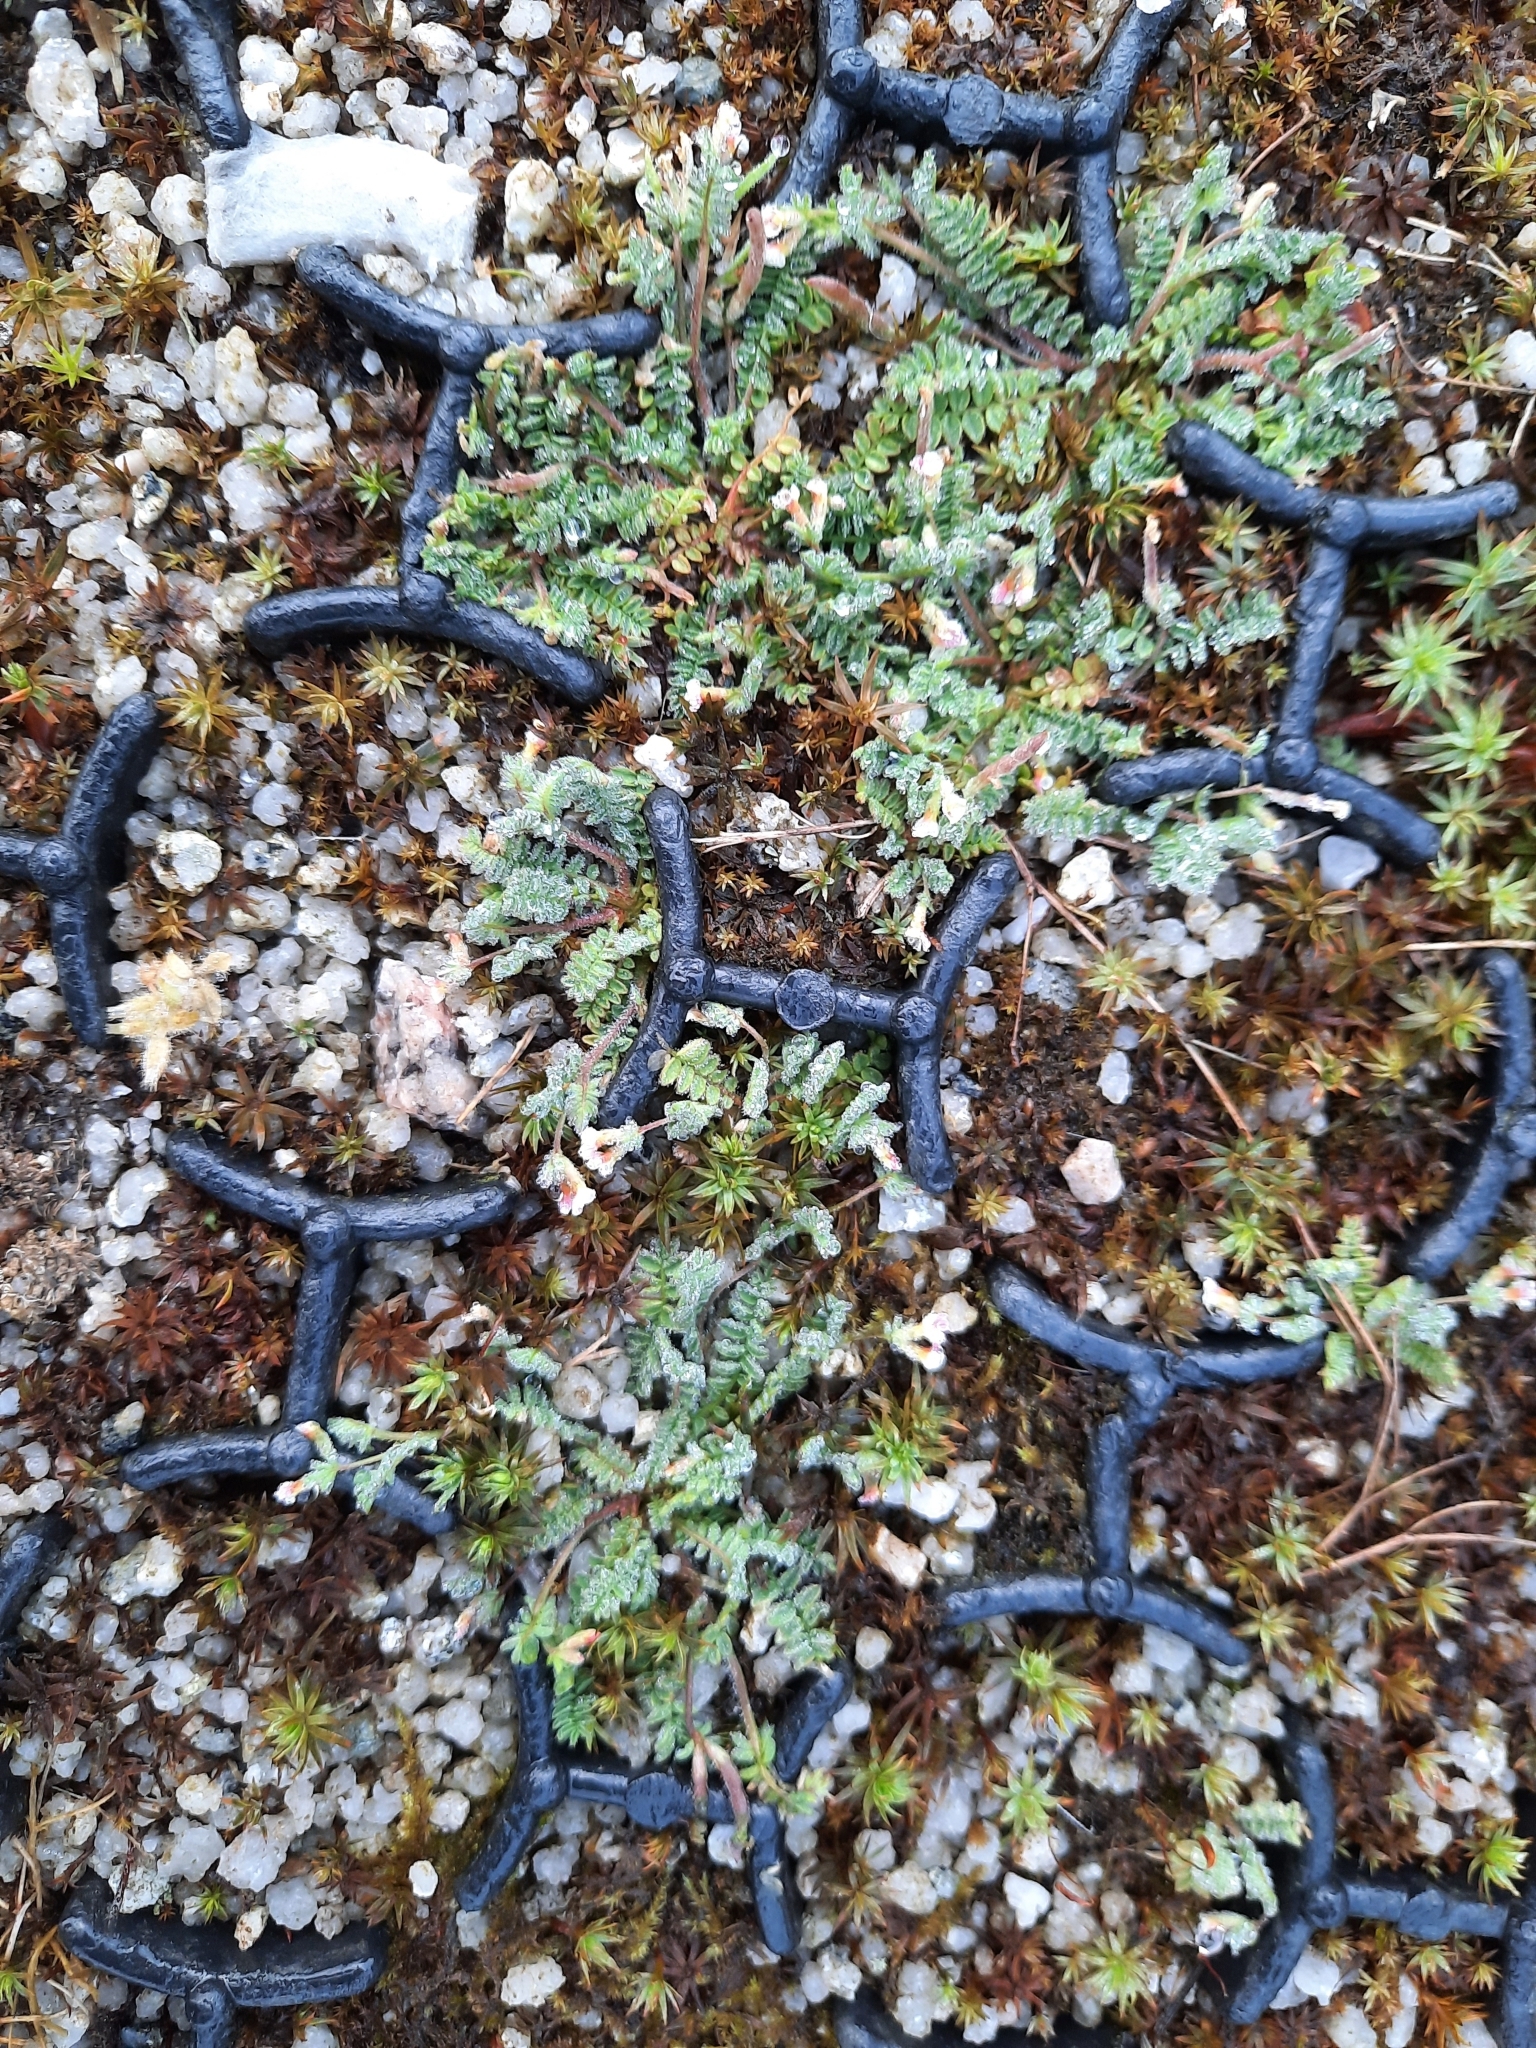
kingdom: Plantae
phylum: Tracheophyta
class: Magnoliopsida
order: Fabales
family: Fabaceae
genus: Ornithopus
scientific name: Ornithopus perpusillus
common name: Bird's-foot
